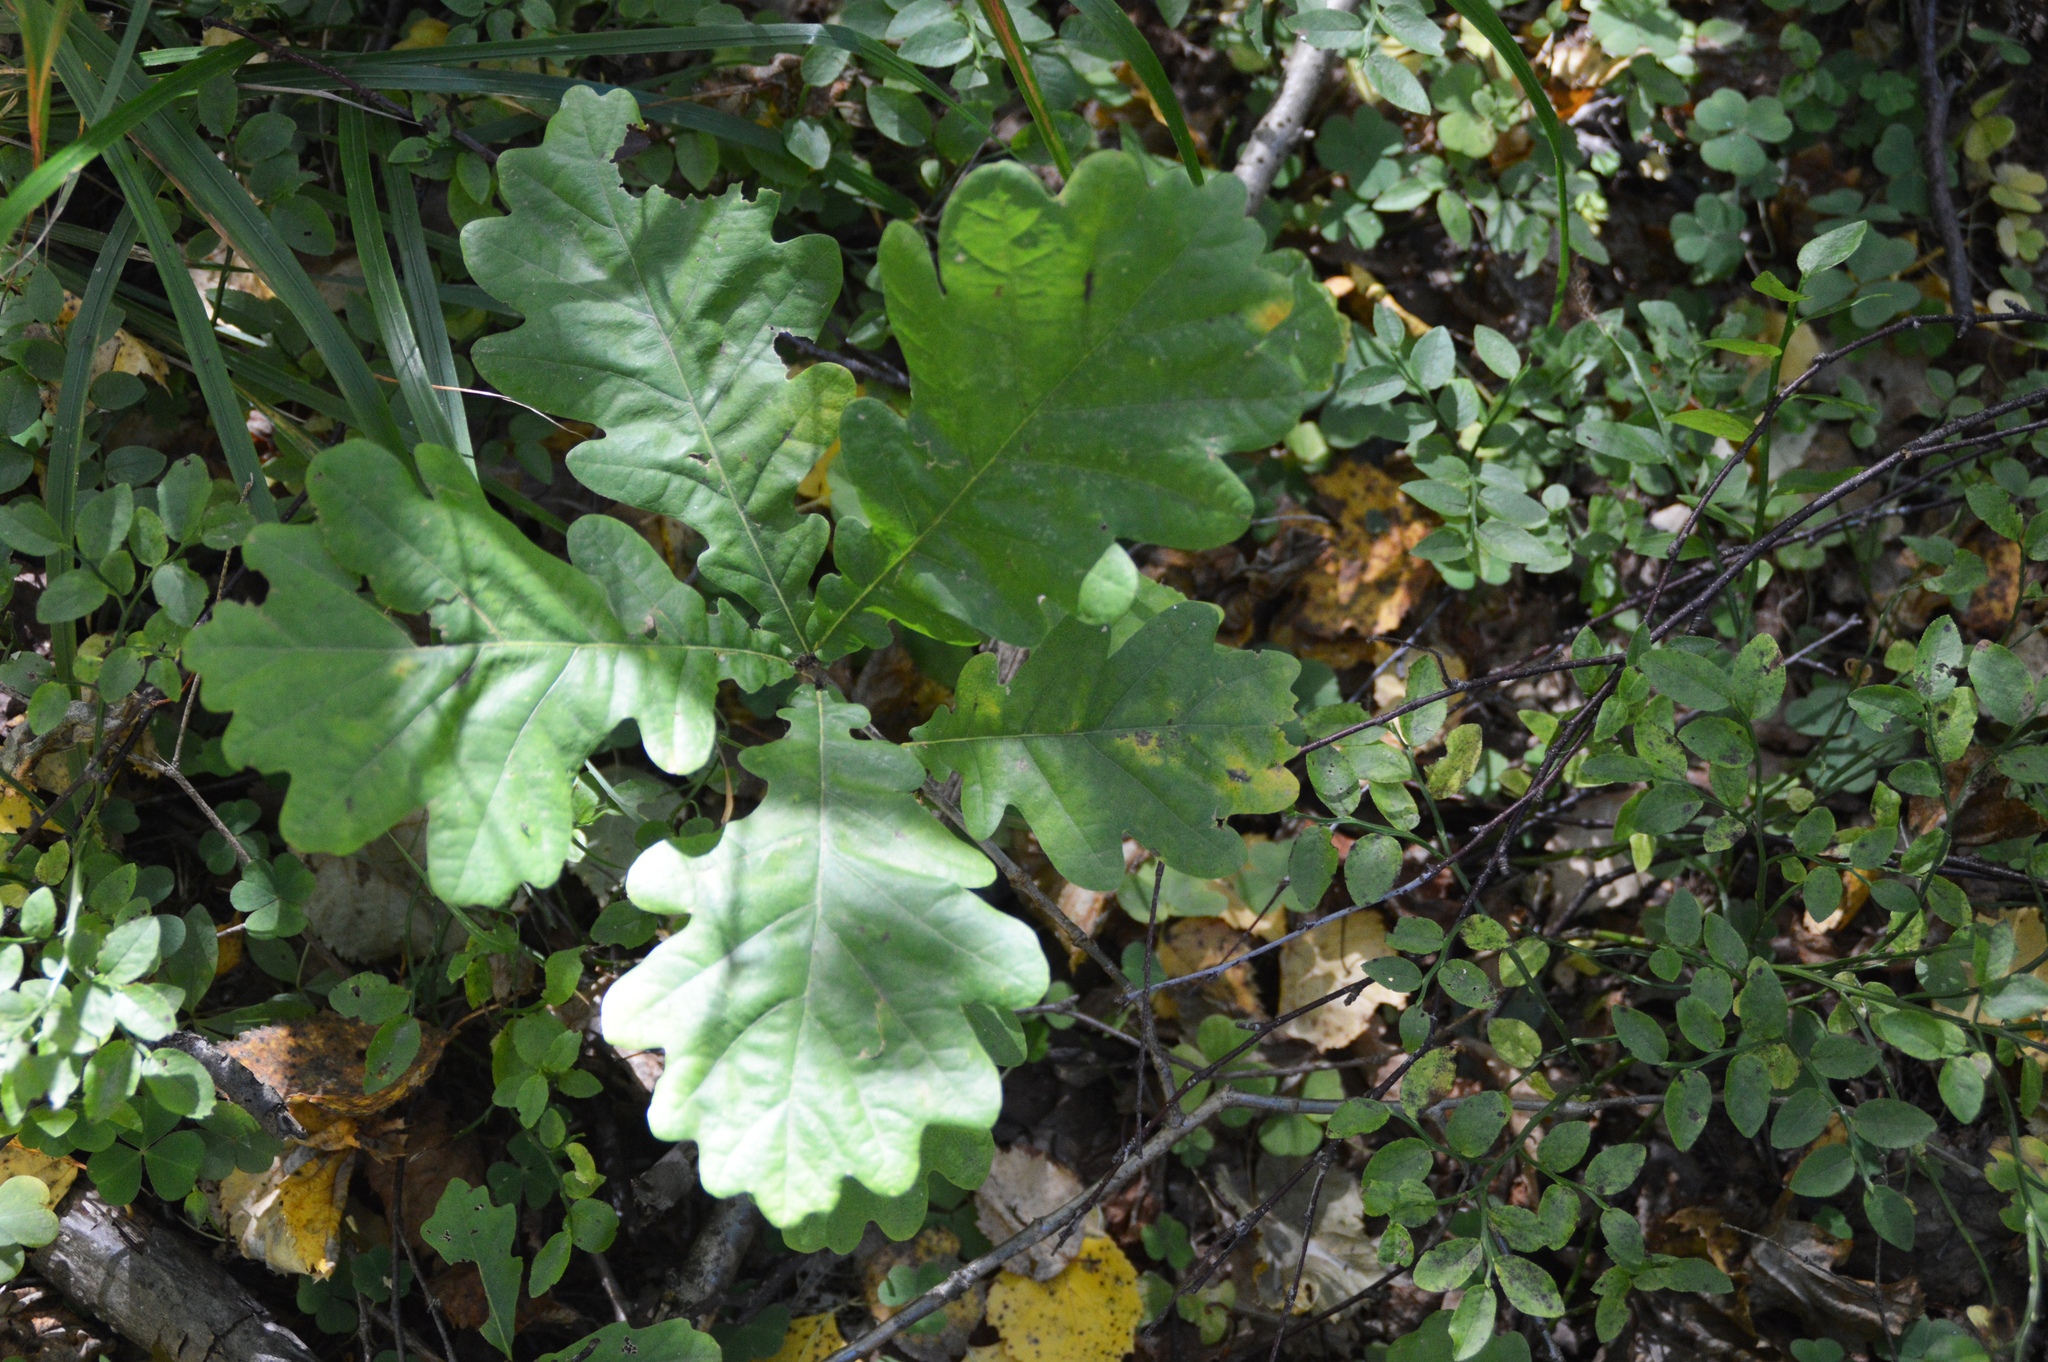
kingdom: Plantae
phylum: Tracheophyta
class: Magnoliopsida
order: Fagales
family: Fagaceae
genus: Quercus
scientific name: Quercus robur
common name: Pedunculate oak
